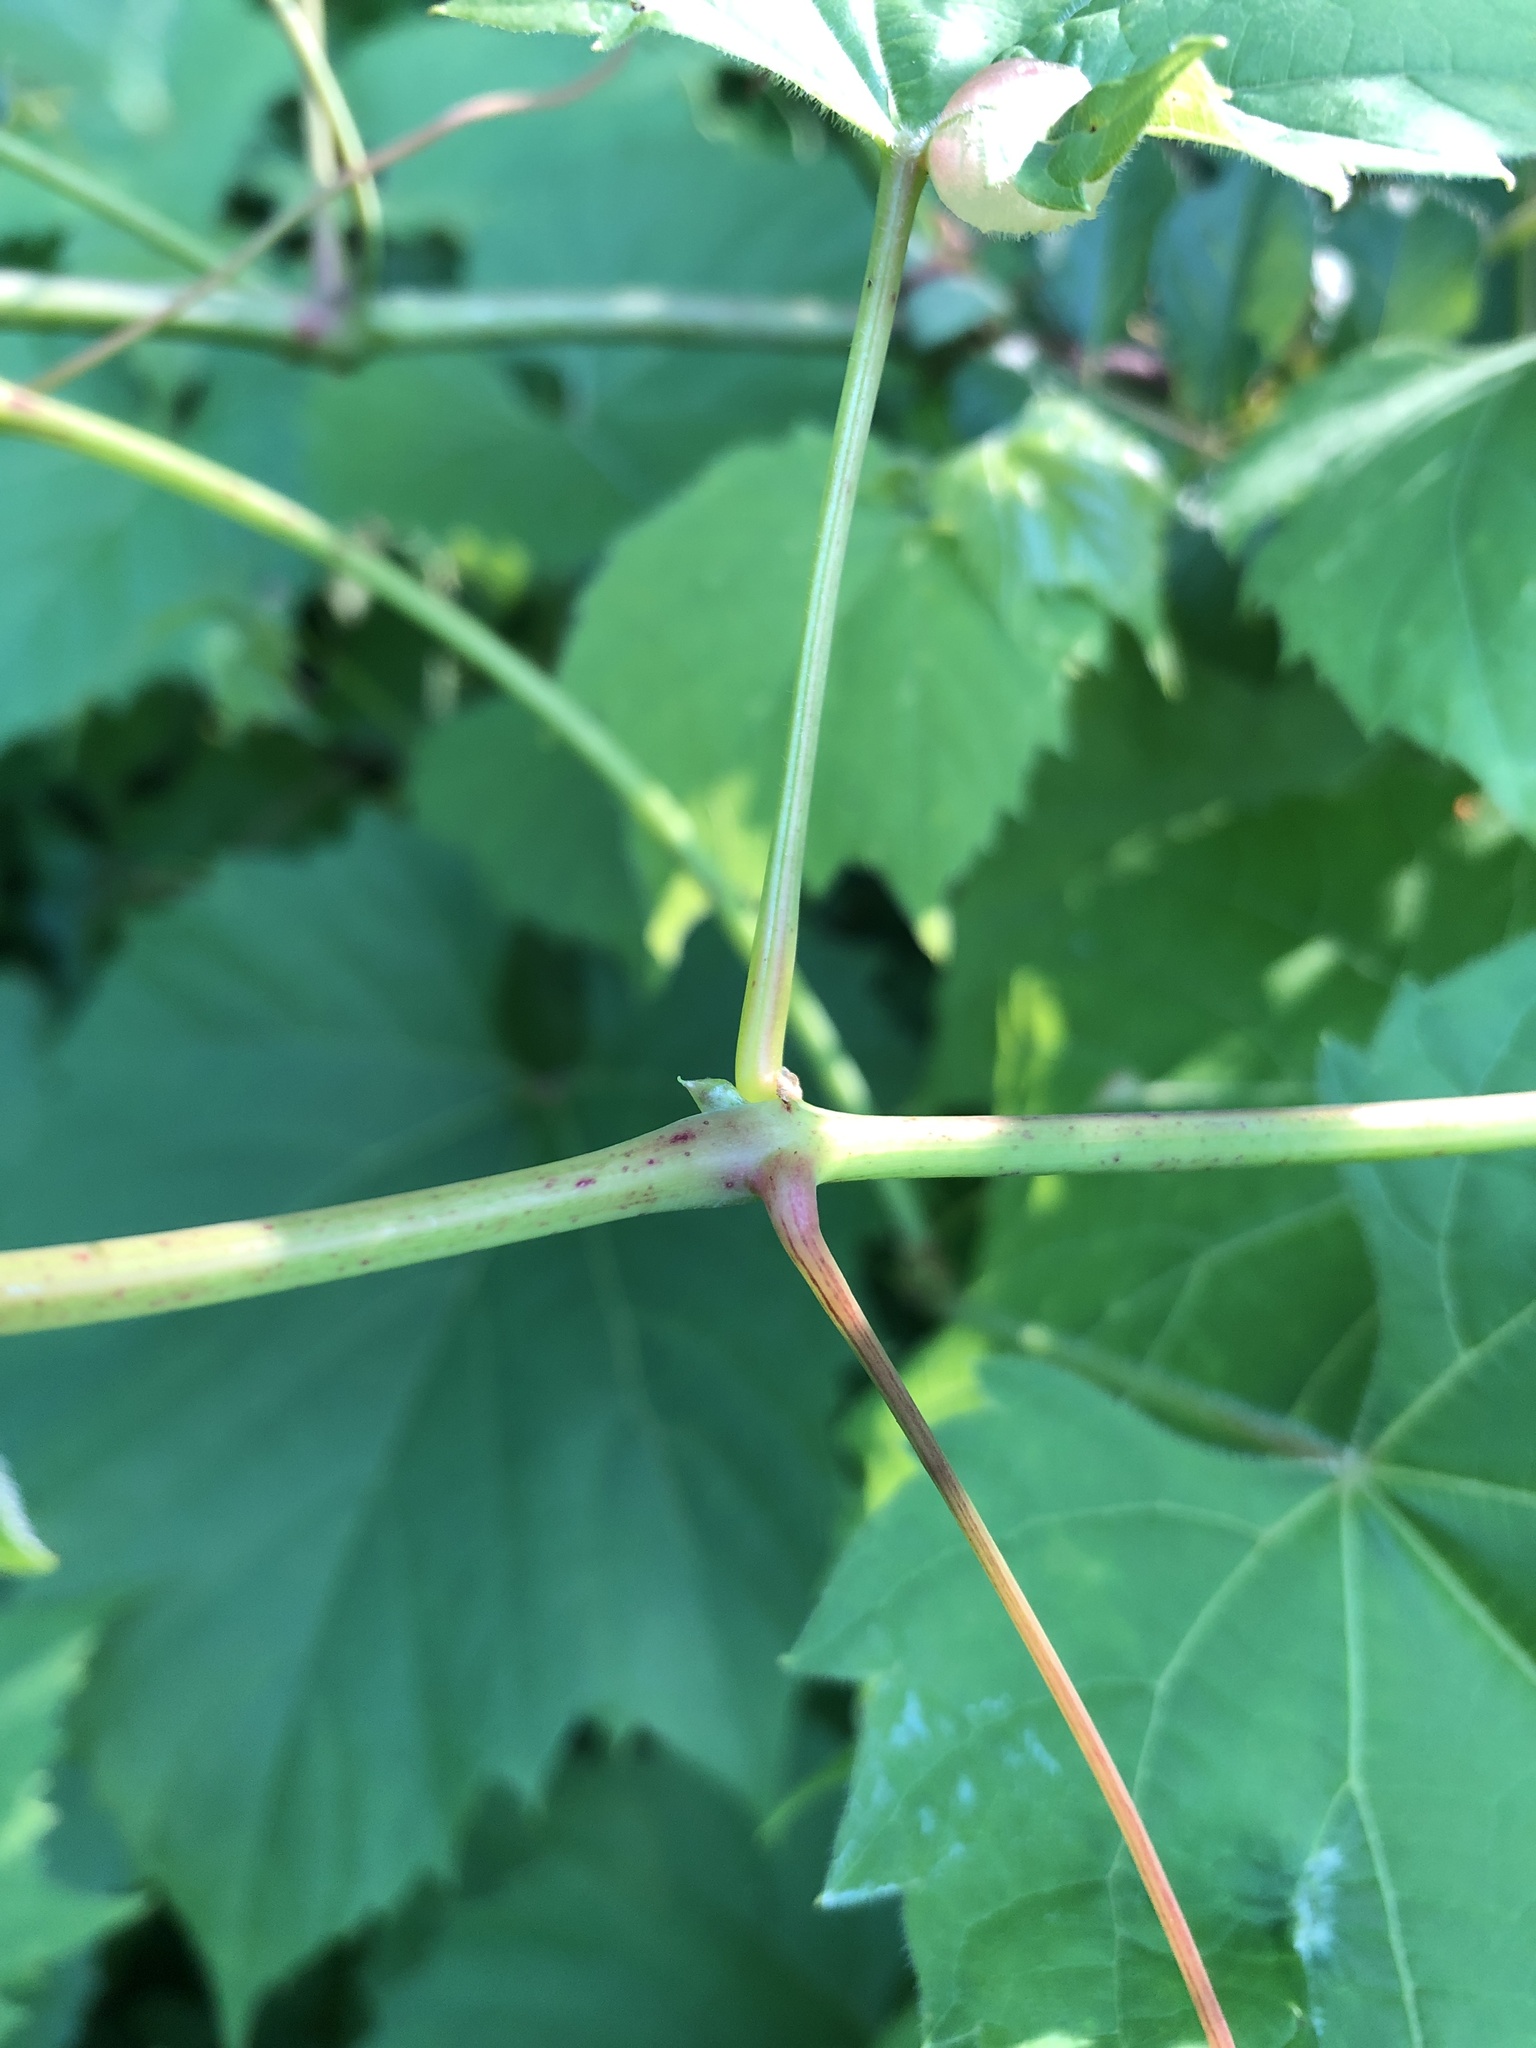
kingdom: Plantae
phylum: Tracheophyta
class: Magnoliopsida
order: Vitales
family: Vitaceae
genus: Vitis
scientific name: Vitis riparia
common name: Frost grape
